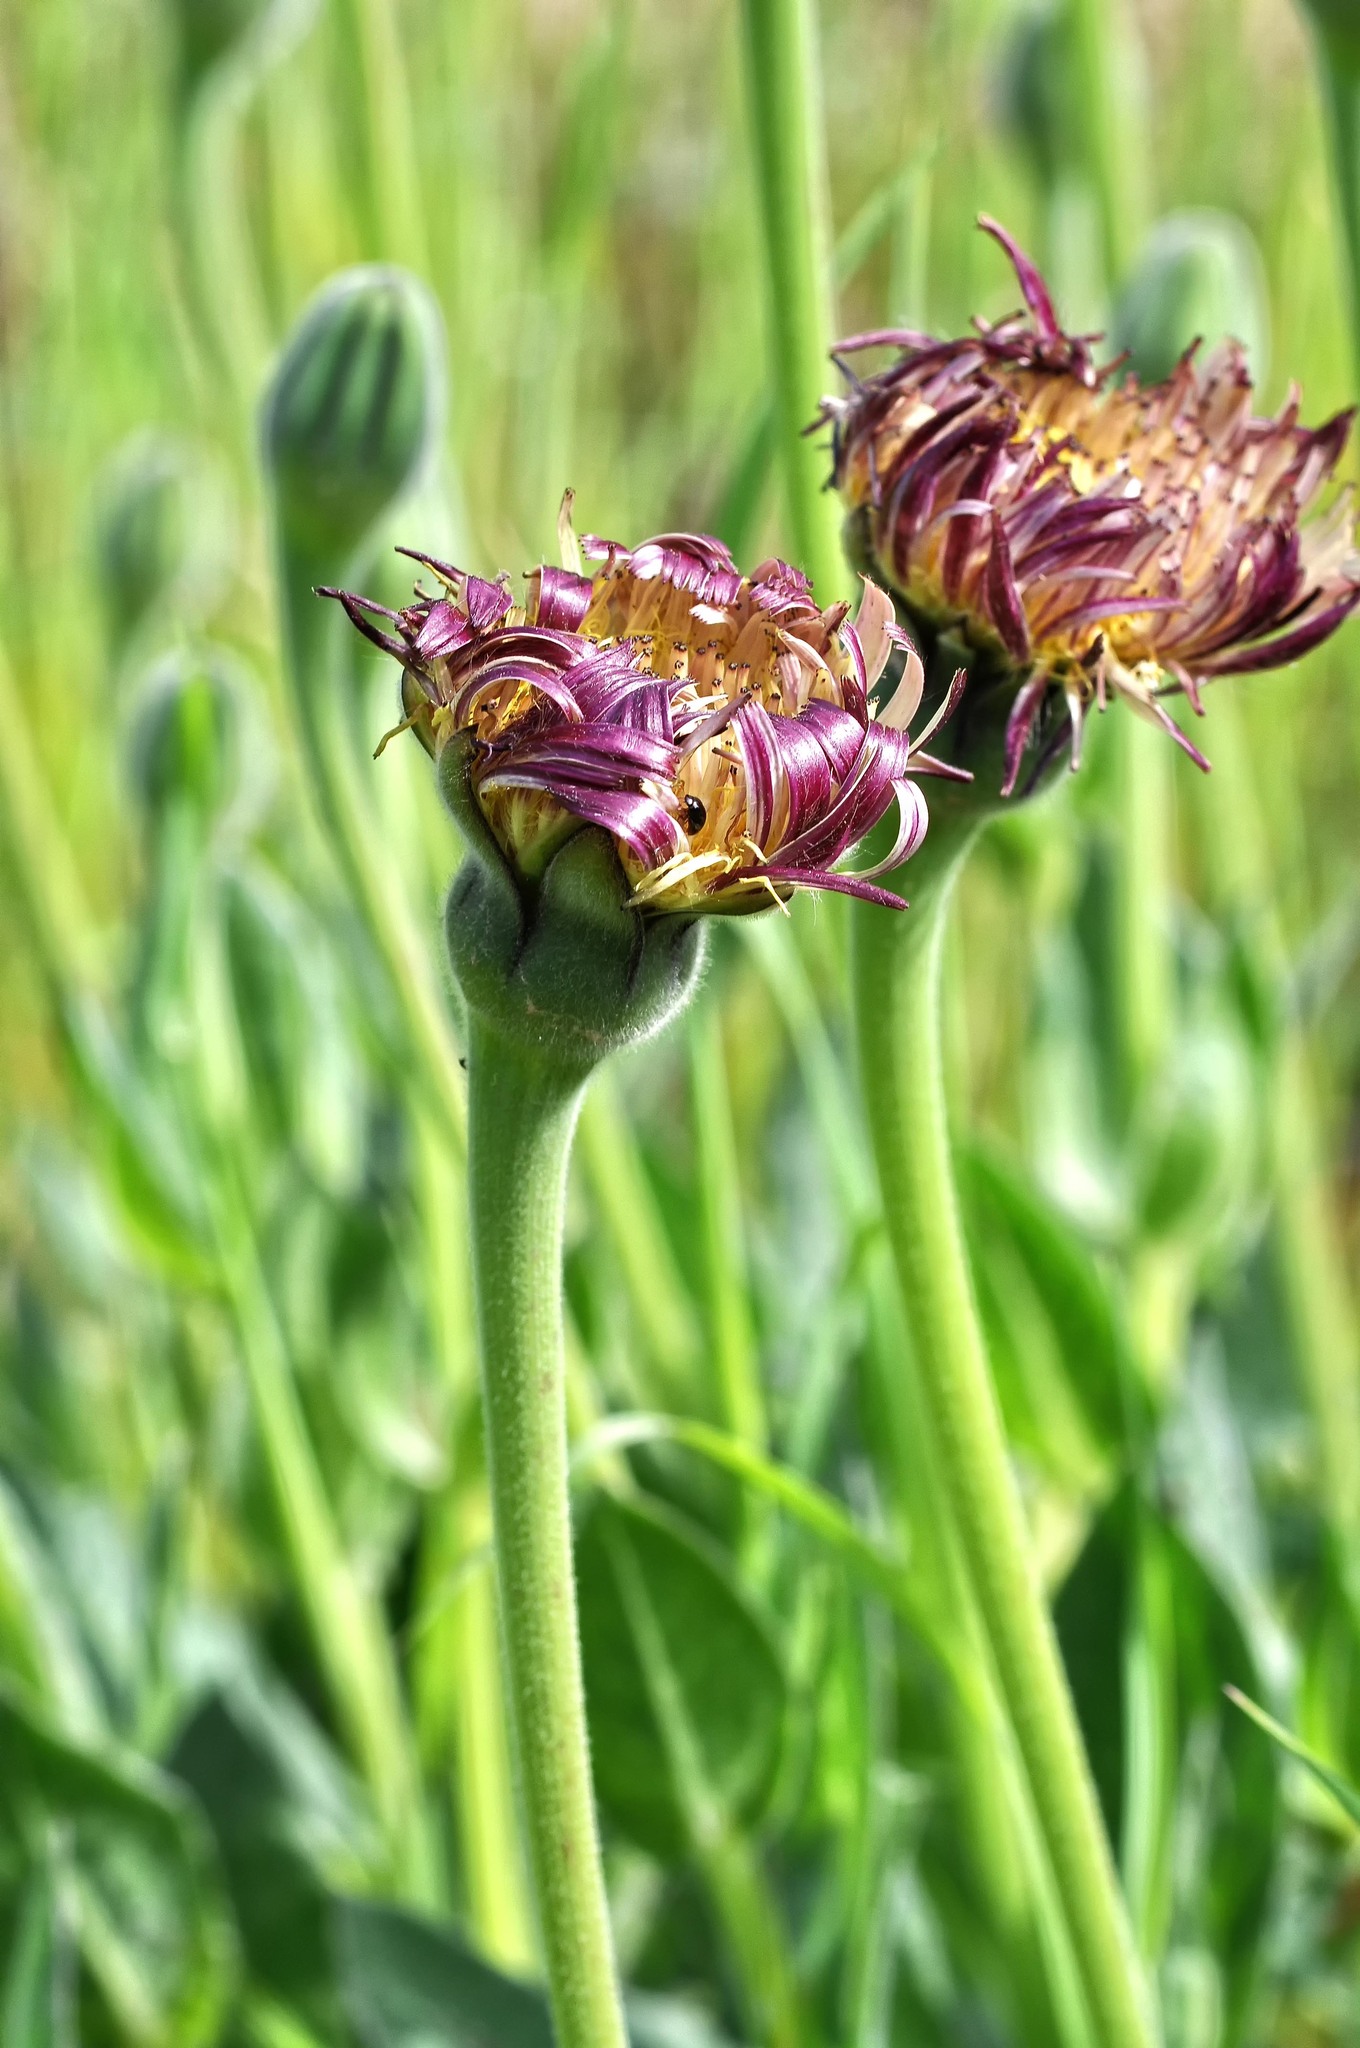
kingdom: Plantae
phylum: Tracheophyta
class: Magnoliopsida
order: Asterales
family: Asteraceae
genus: Urospermum
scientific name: Urospermum dalechampii
